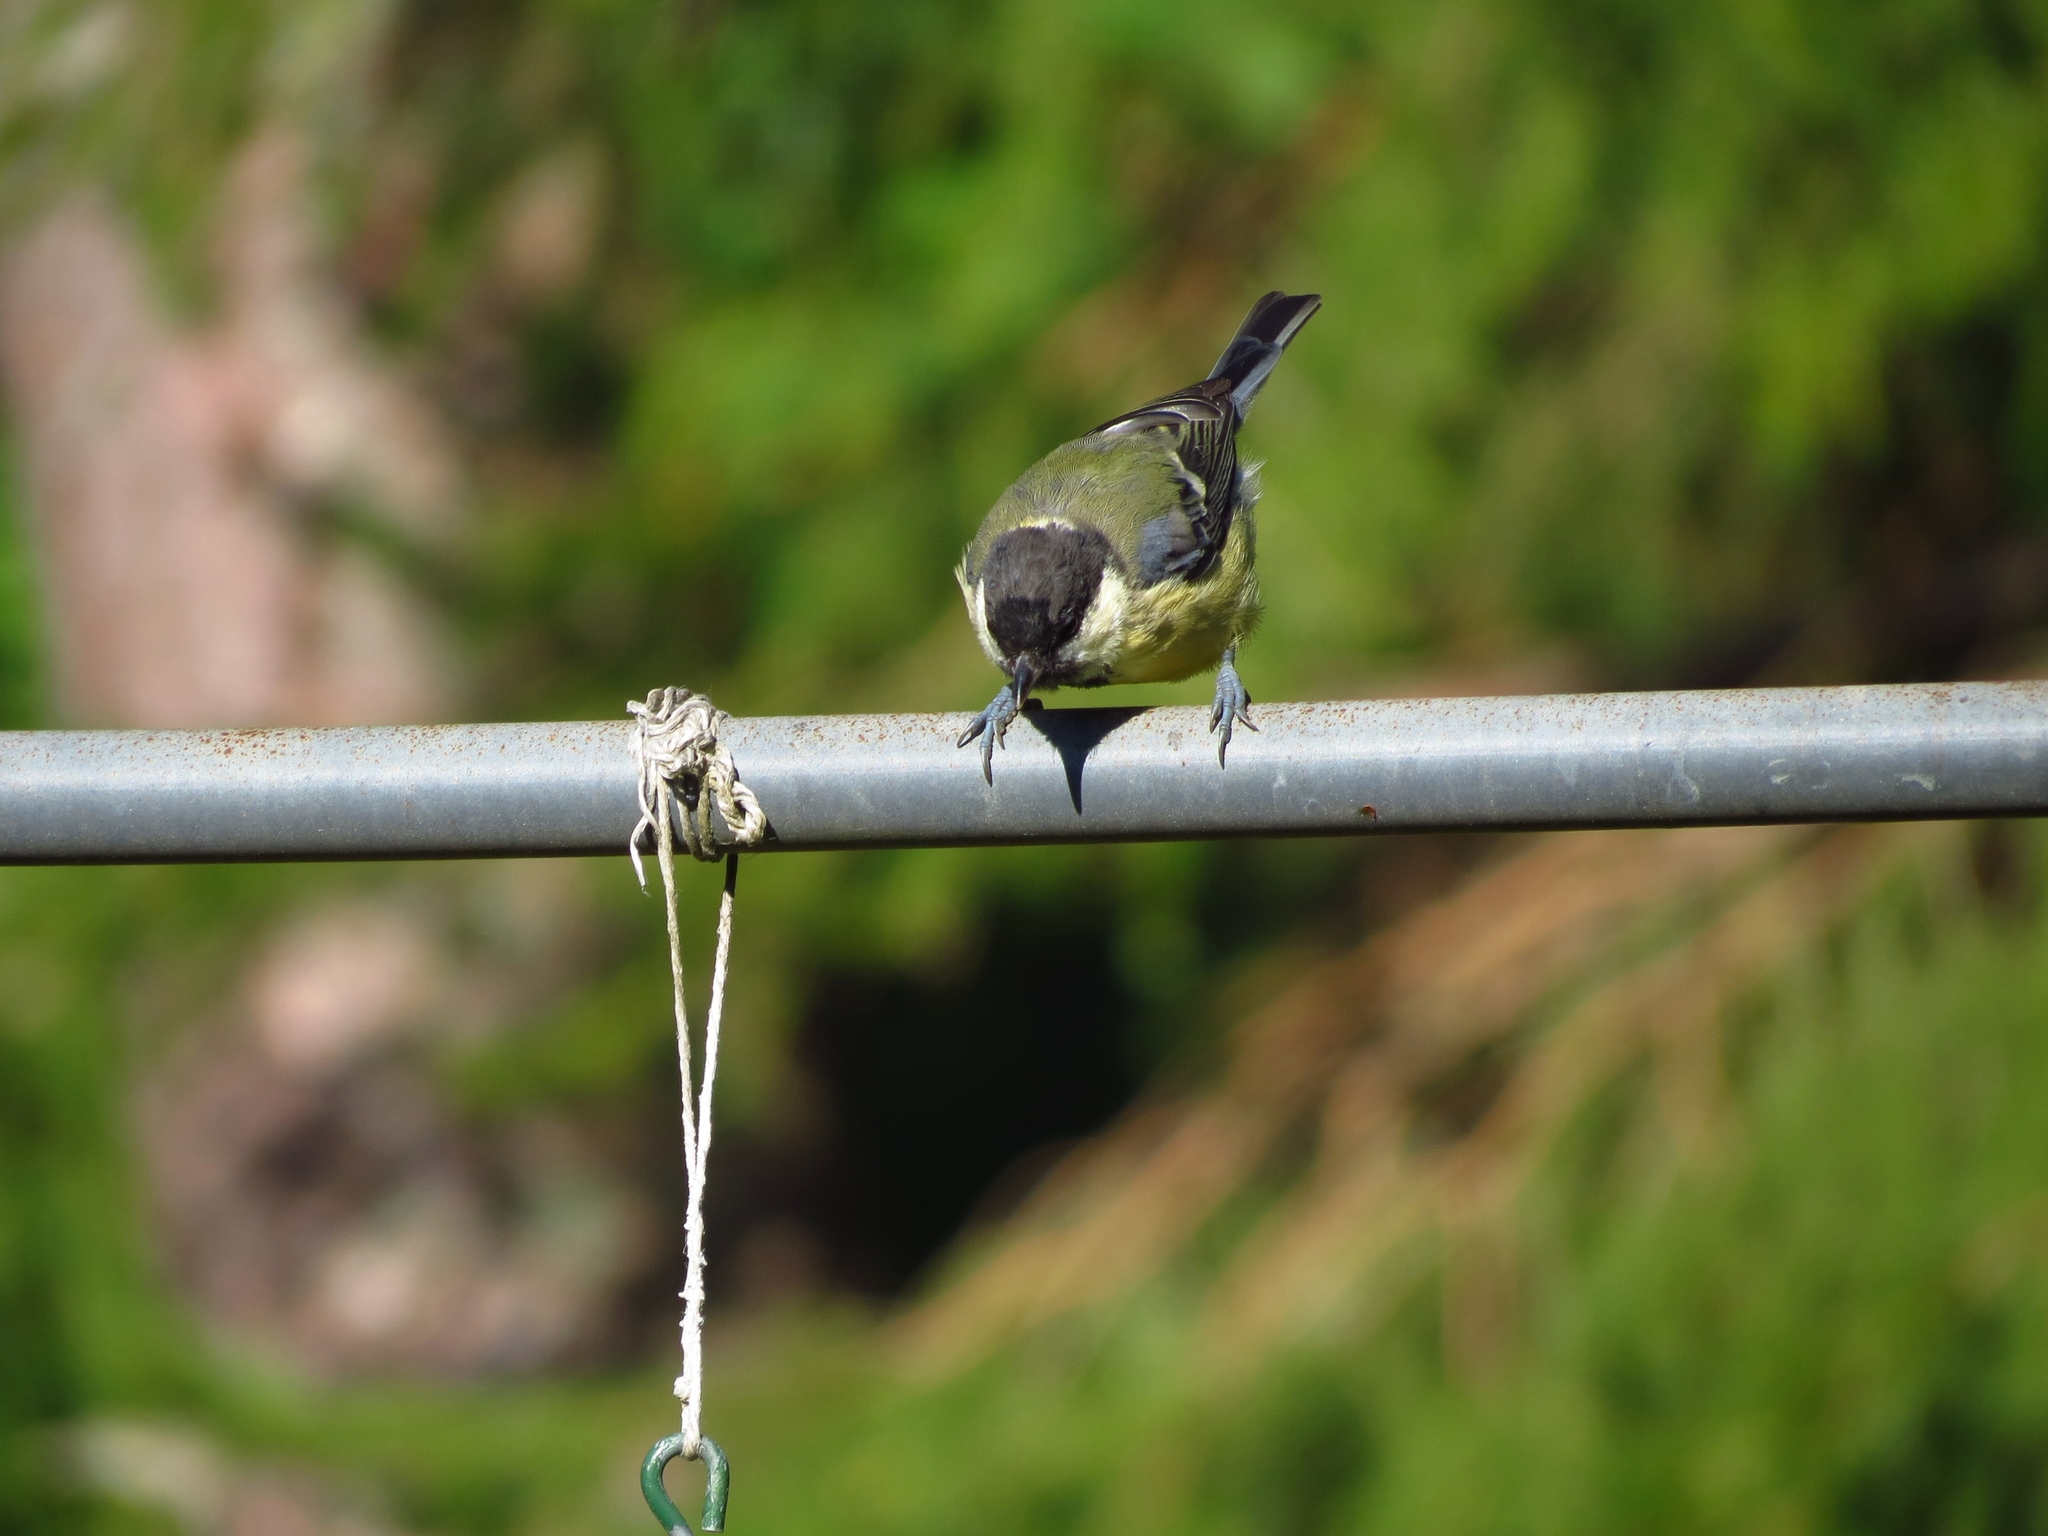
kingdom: Animalia
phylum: Chordata
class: Aves
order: Passeriformes
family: Paridae
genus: Parus
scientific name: Parus major
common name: Great tit
